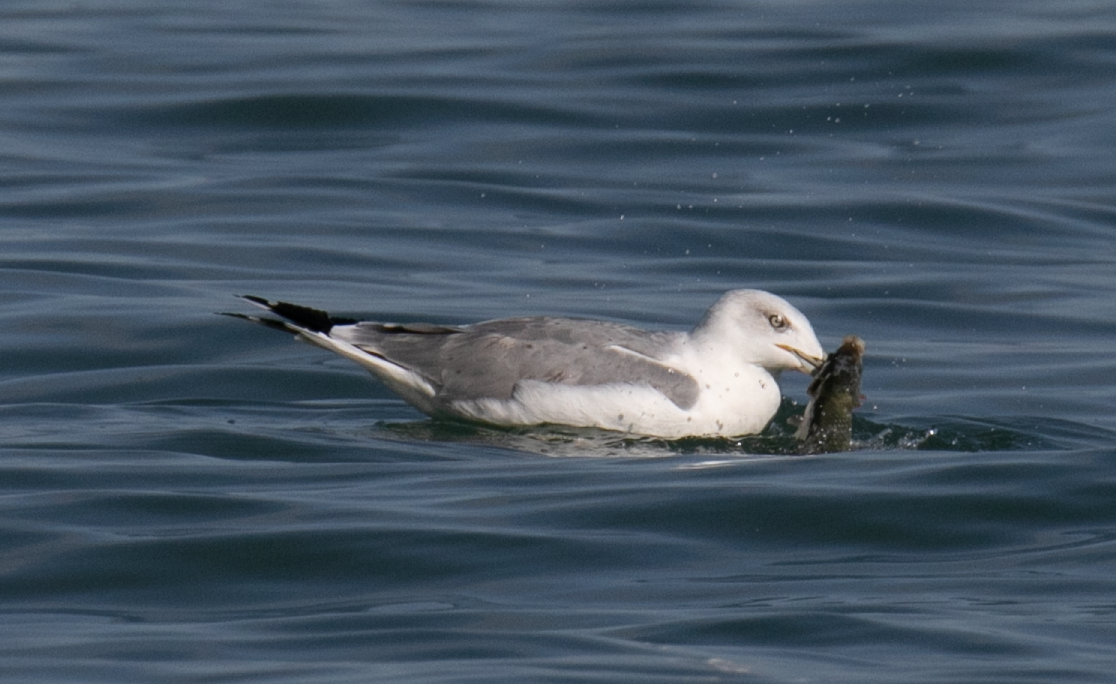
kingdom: Animalia
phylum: Chordata
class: Aves
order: Charadriiformes
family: Laridae
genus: Larus
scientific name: Larus michahellis
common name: Yellow-legged gull
